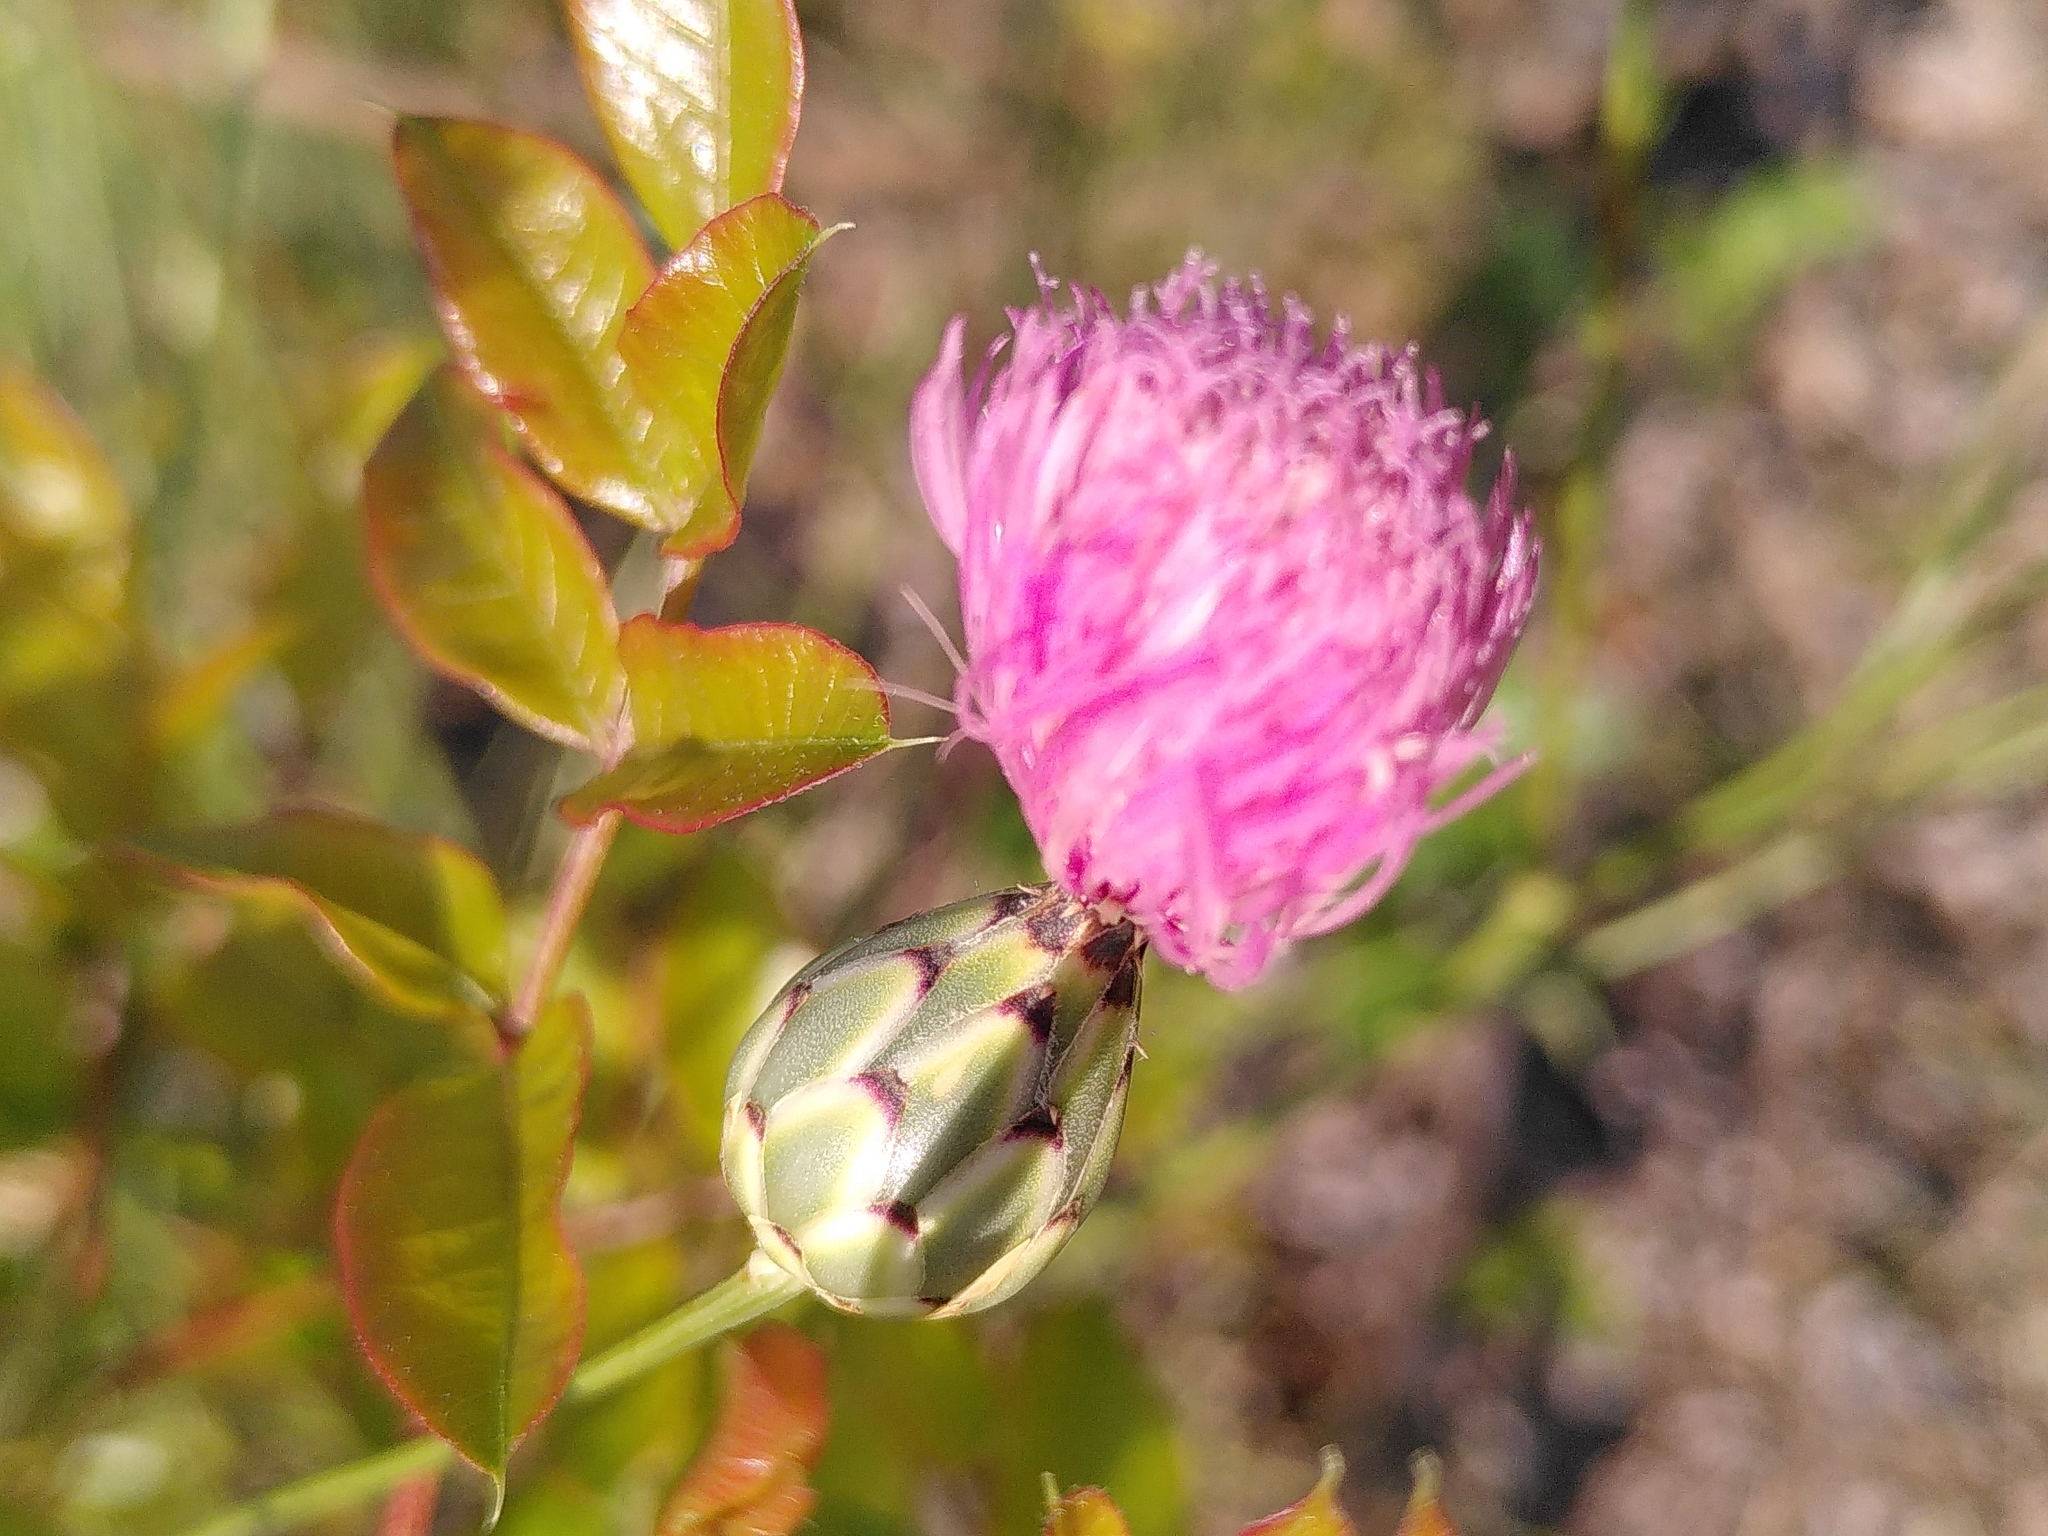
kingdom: Plantae
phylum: Tracheophyta
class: Magnoliopsida
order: Asterales
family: Asteraceae
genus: Mantisalca
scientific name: Mantisalca salmantica
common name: Dagger flower
